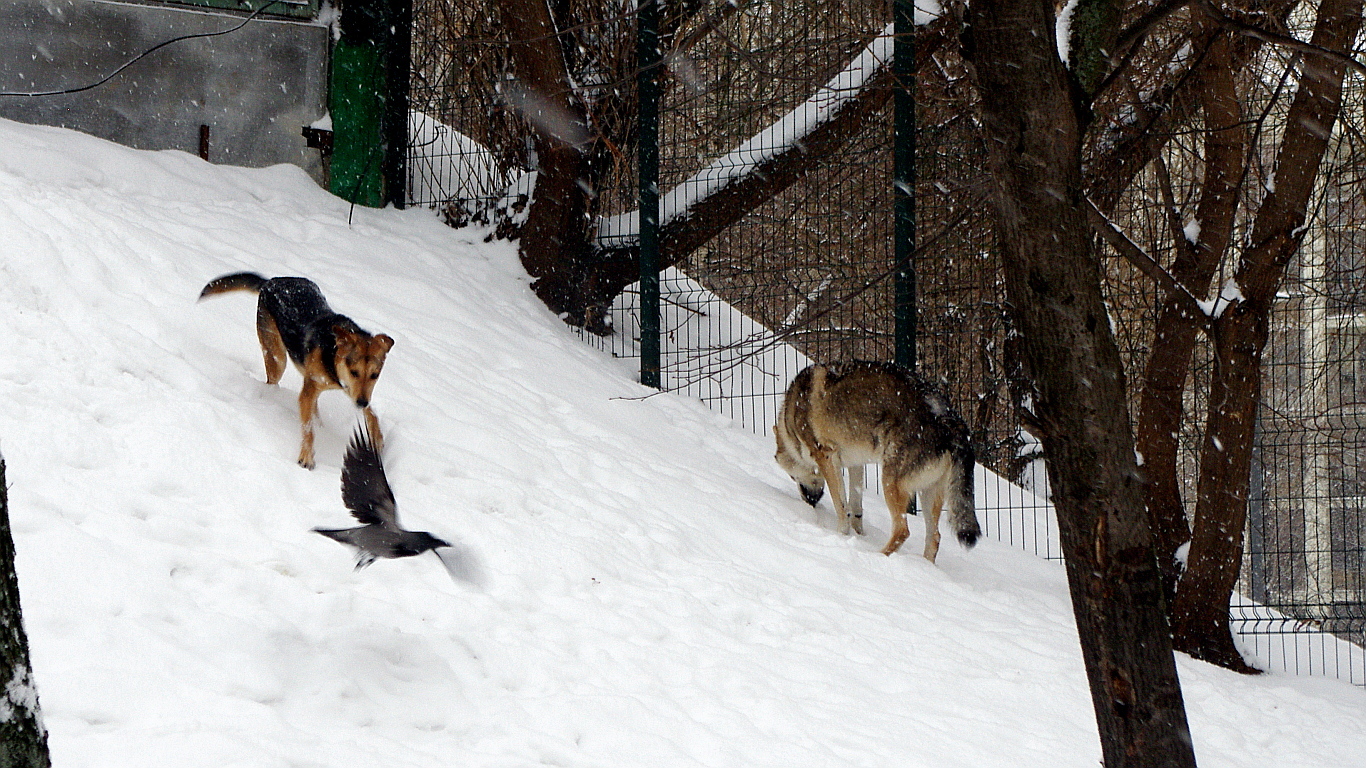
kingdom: Animalia
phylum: Chordata
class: Aves
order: Passeriformes
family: Corvidae
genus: Corvus
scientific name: Corvus cornix
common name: Hooded crow
